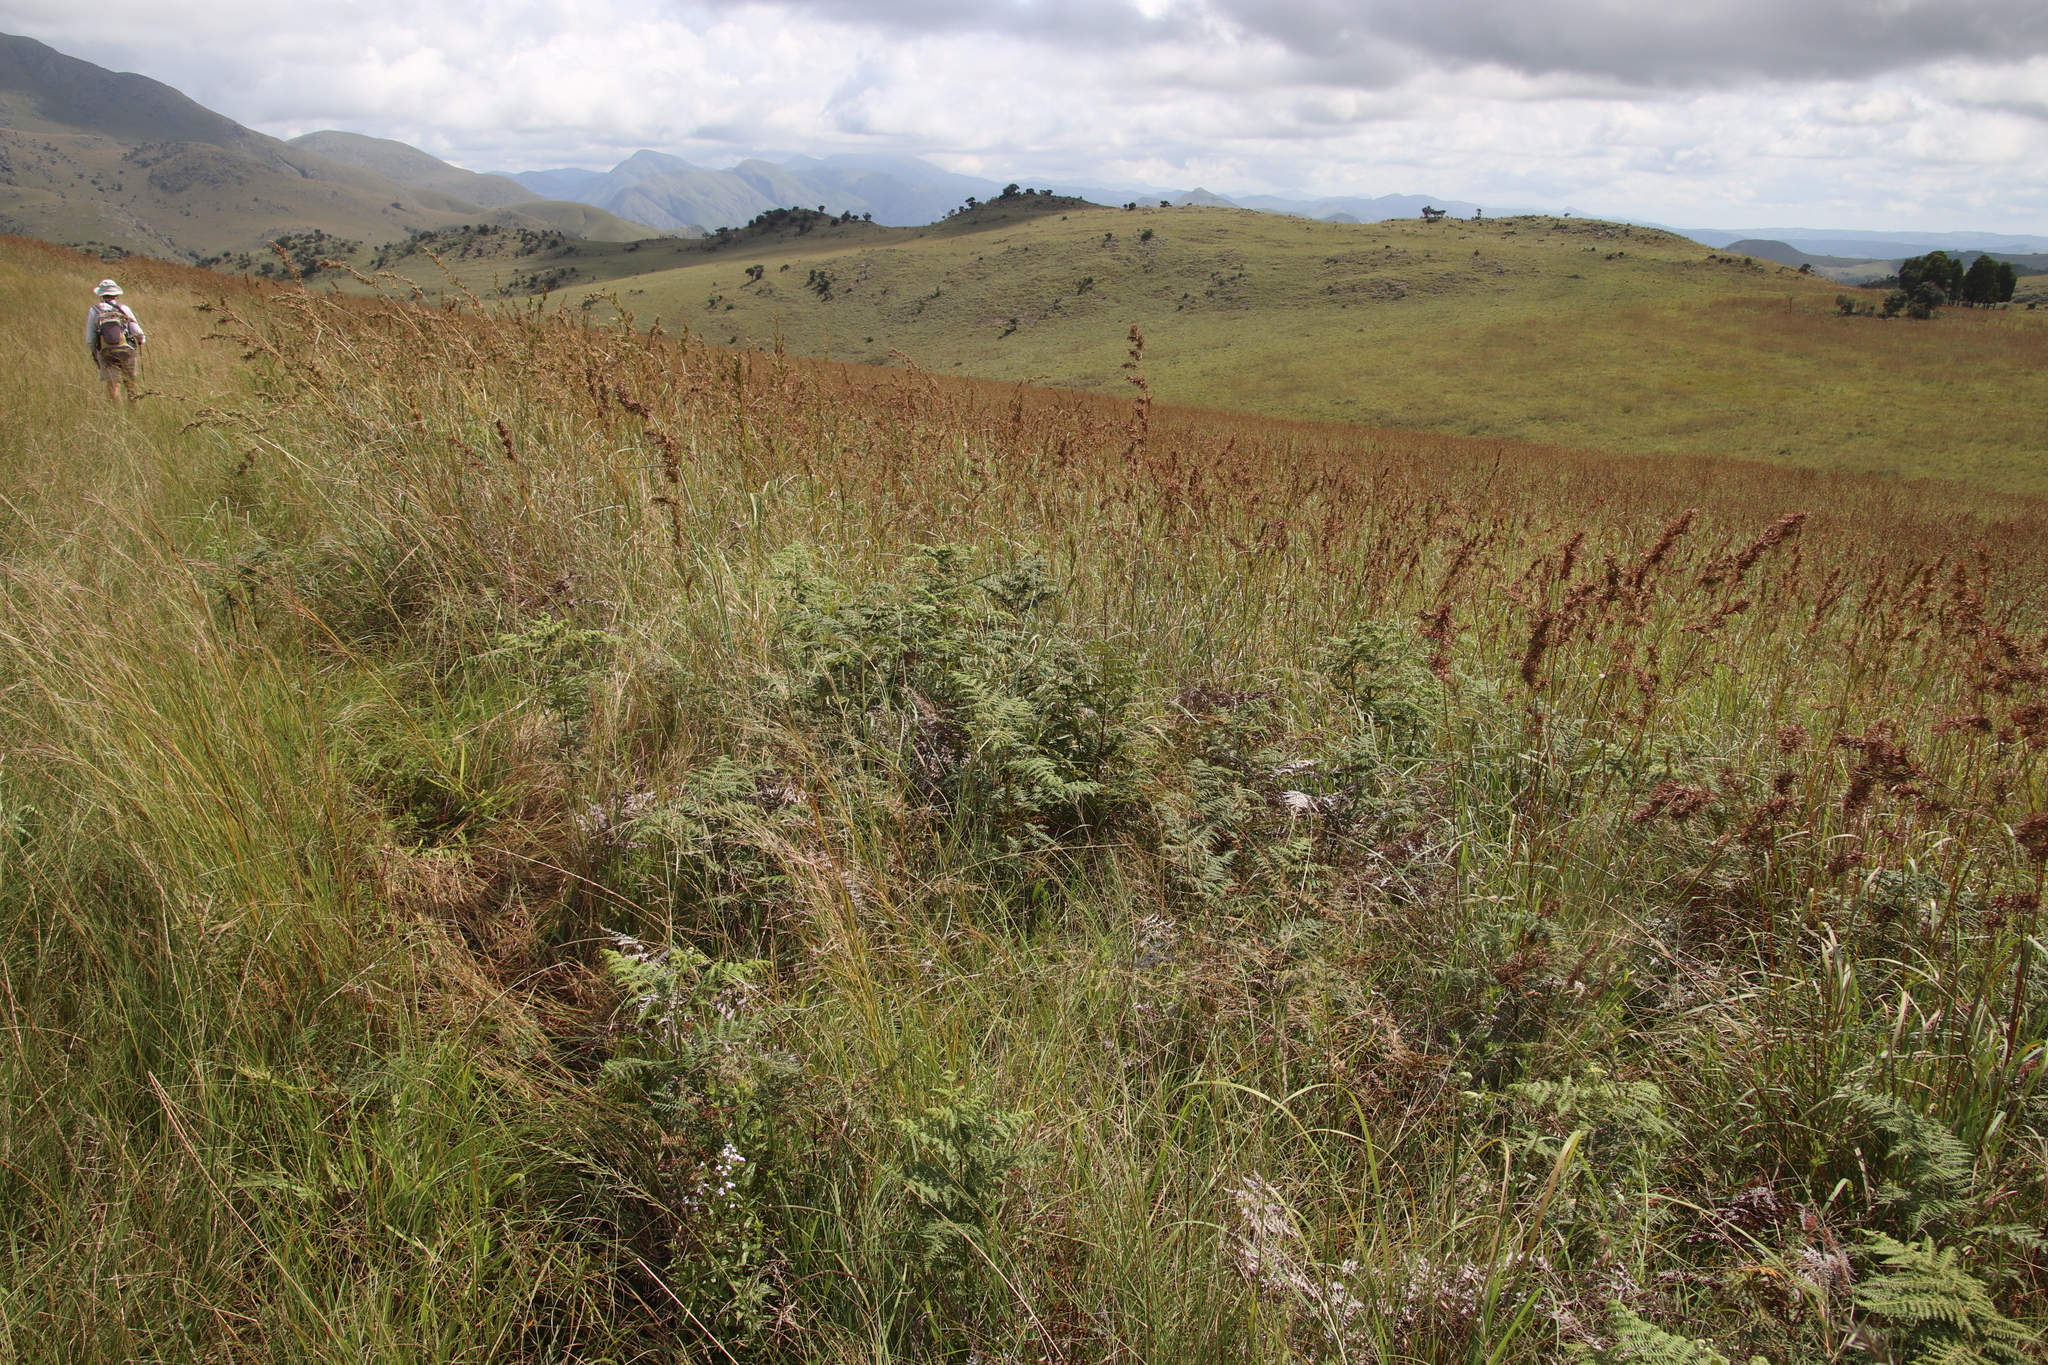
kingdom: Plantae
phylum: Tracheophyta
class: Polypodiopsida
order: Polypodiales
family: Dennstaedtiaceae
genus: Pteridium
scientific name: Pteridium aquilinum
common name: Bracken
